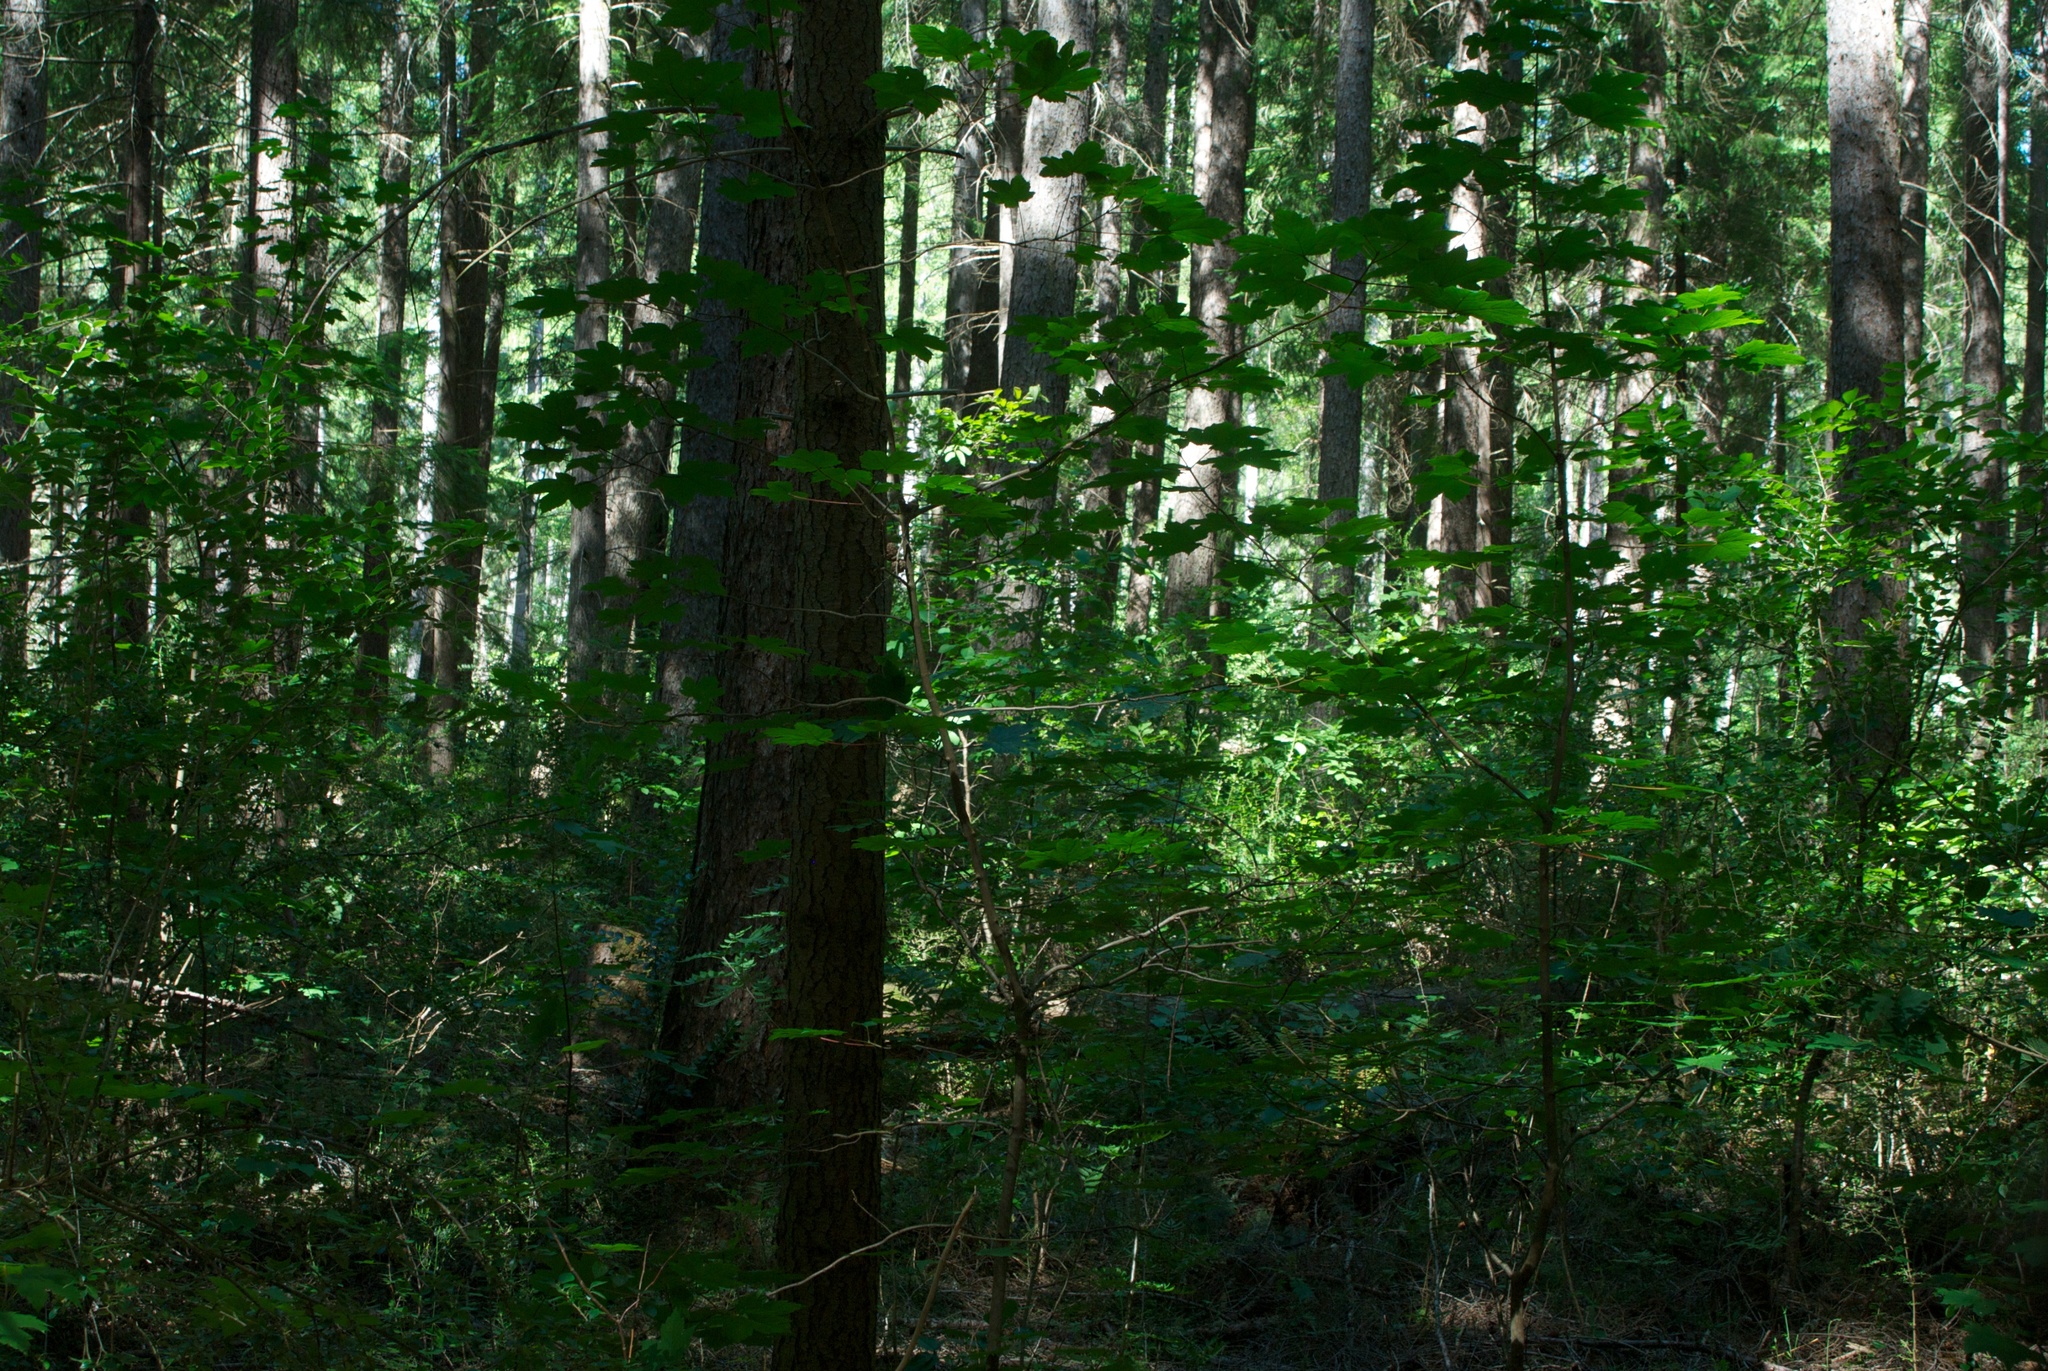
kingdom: Plantae
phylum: Tracheophyta
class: Magnoliopsida
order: Sapindales
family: Sapindaceae
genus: Acer
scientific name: Acer pseudoplatanus
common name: Sycamore
